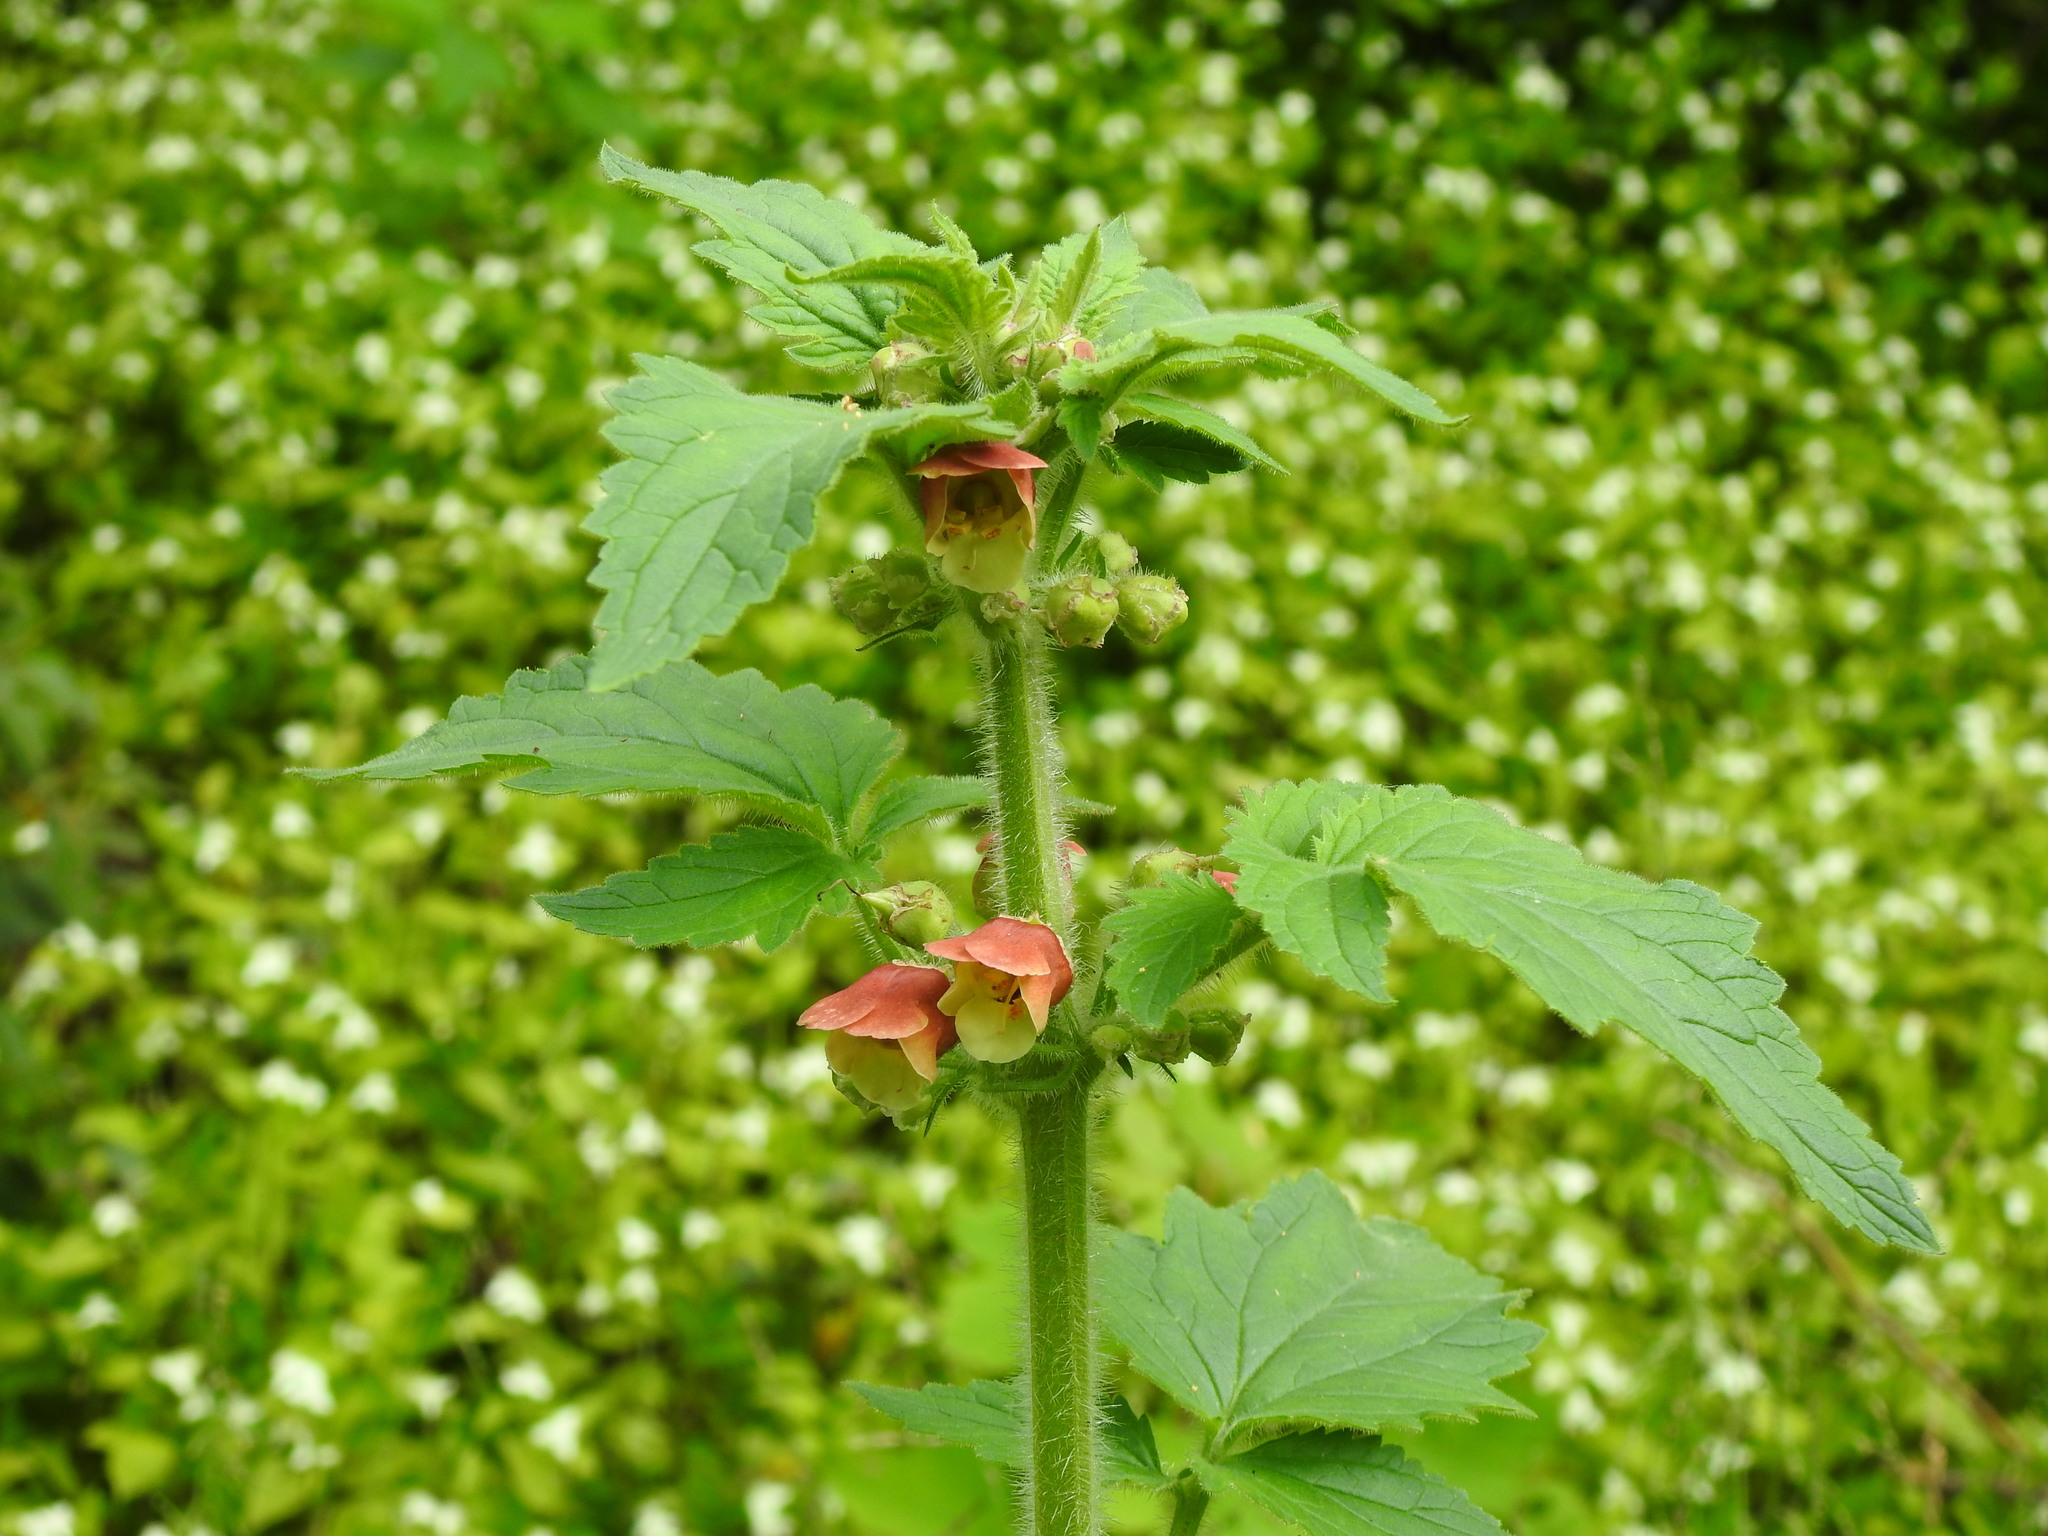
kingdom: Plantae
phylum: Tracheophyta
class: Magnoliopsida
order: Lamiales
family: Scrophulariaceae
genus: Scrophularia
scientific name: Scrophularia grandiflora
